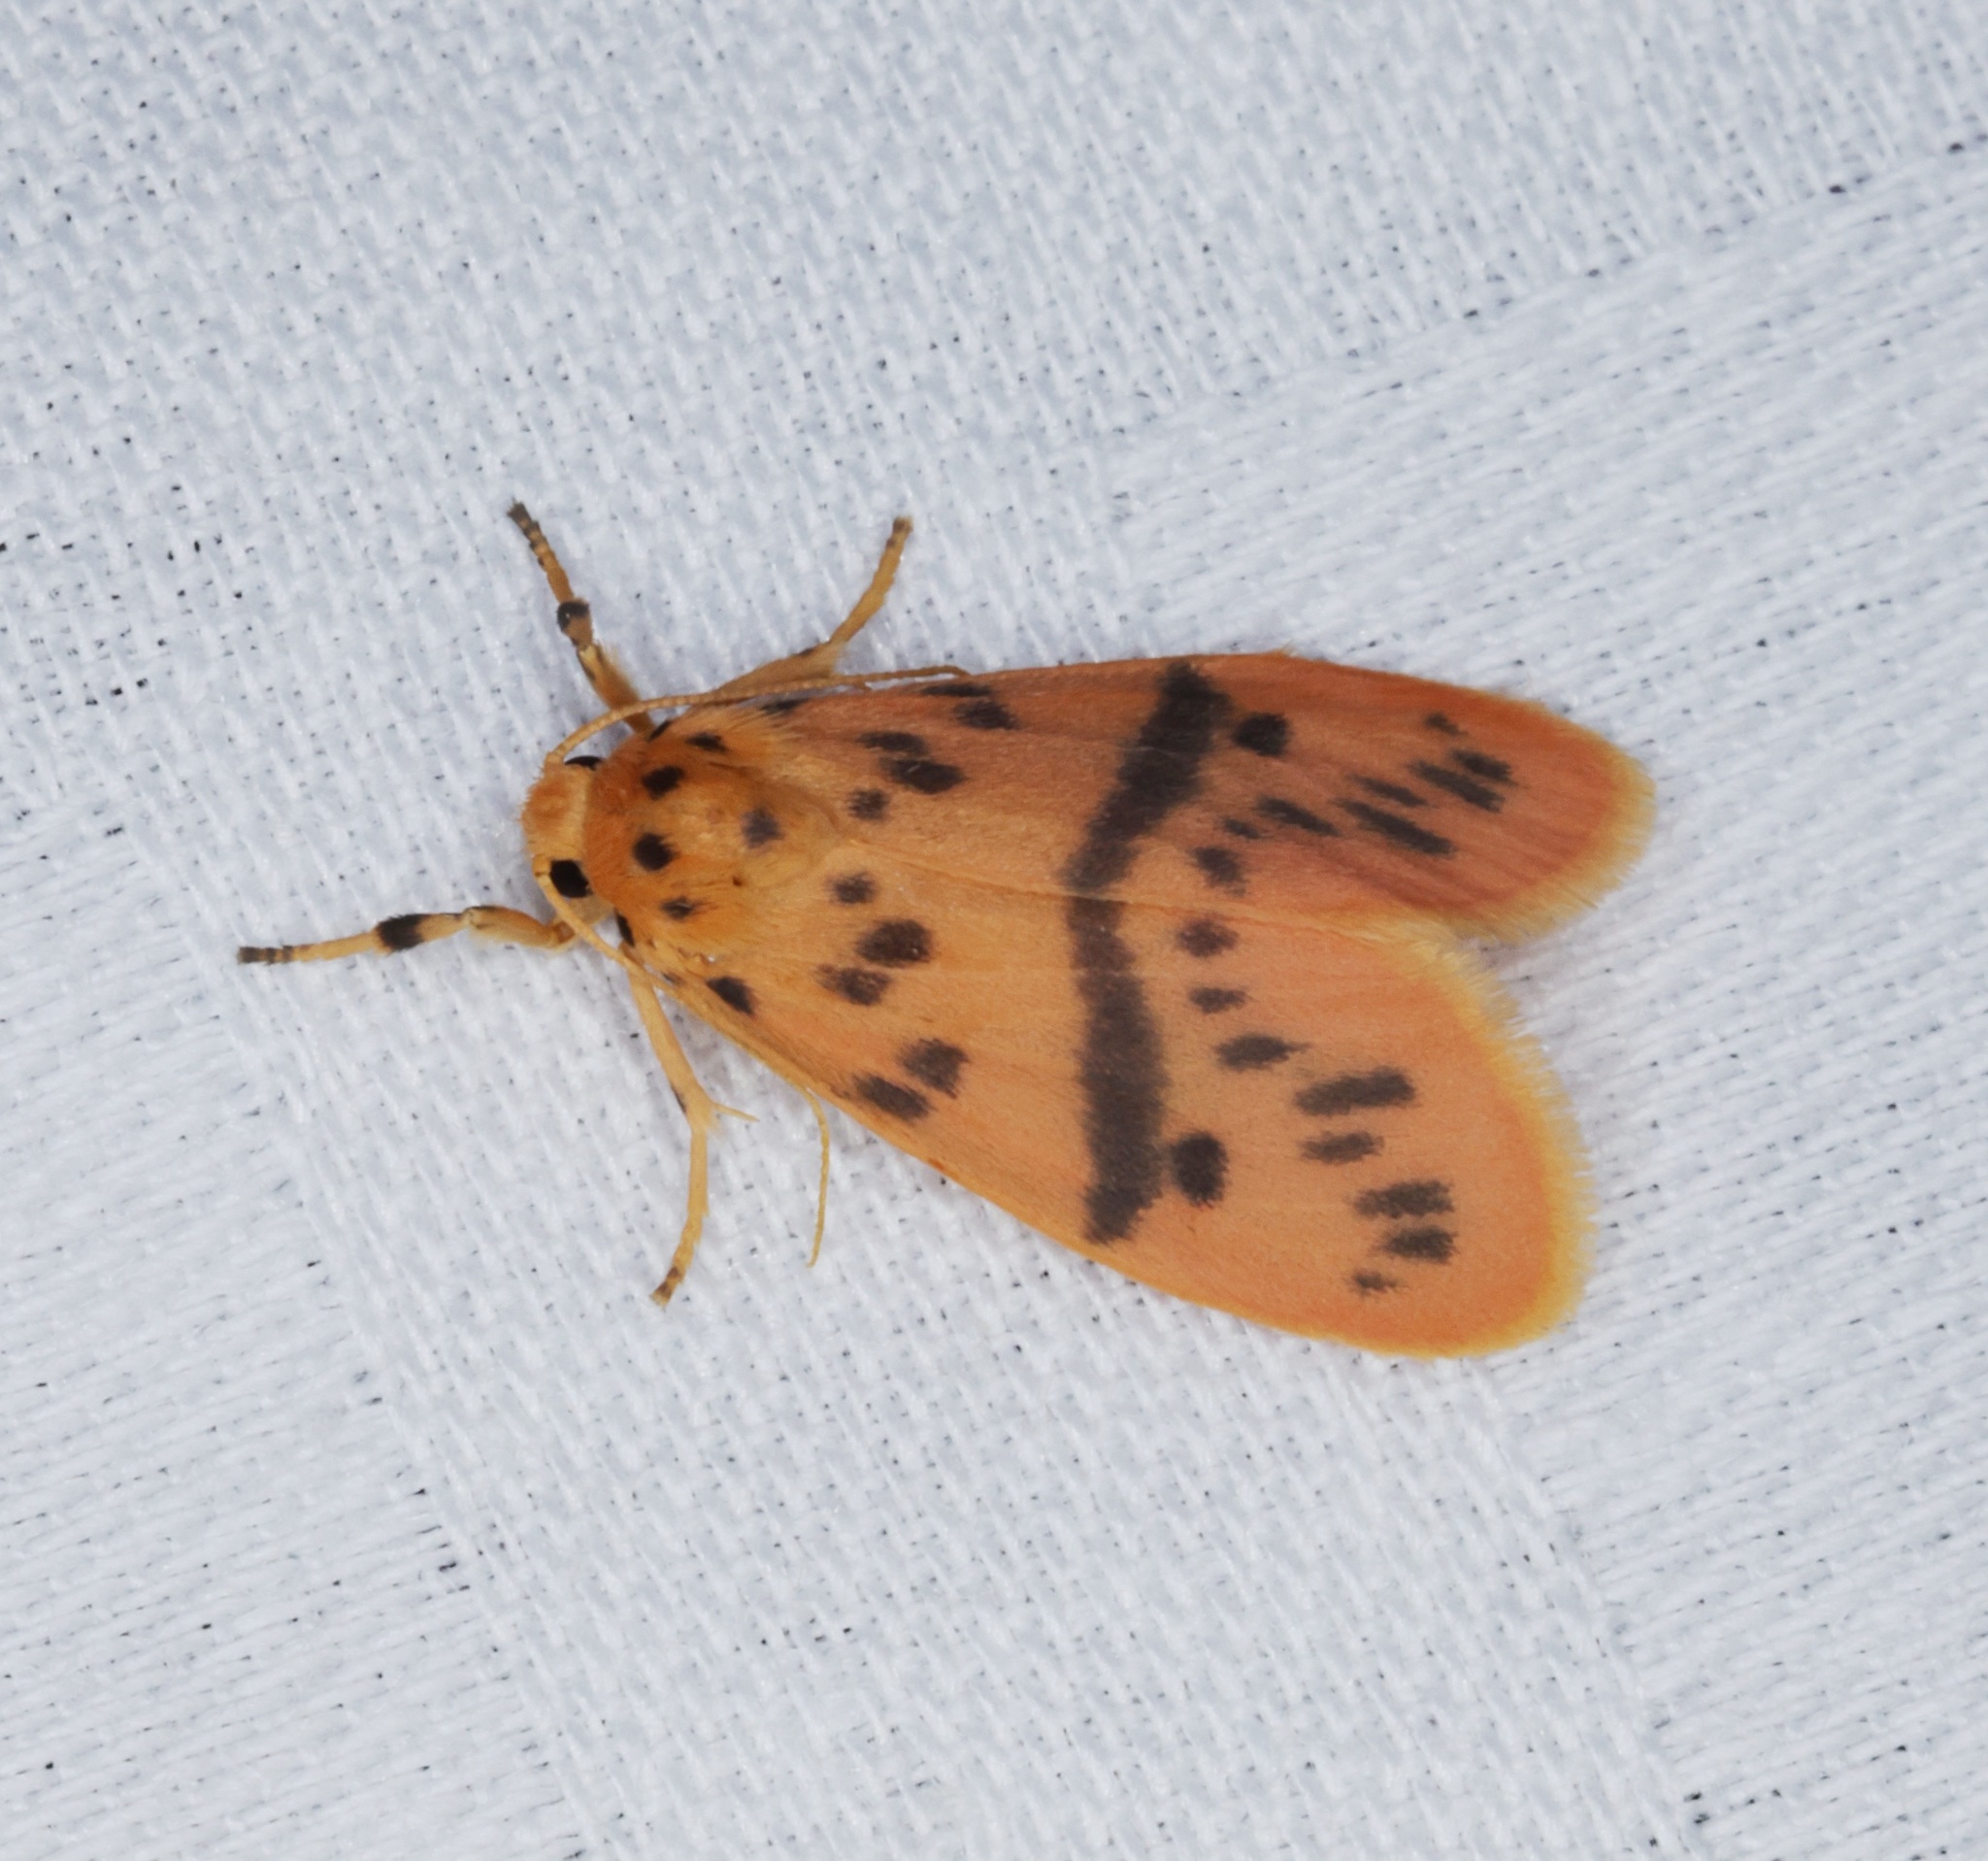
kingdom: Animalia
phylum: Arthropoda
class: Insecta
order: Lepidoptera
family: Erebidae
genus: Arctelene
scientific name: Arctelene arcuata
